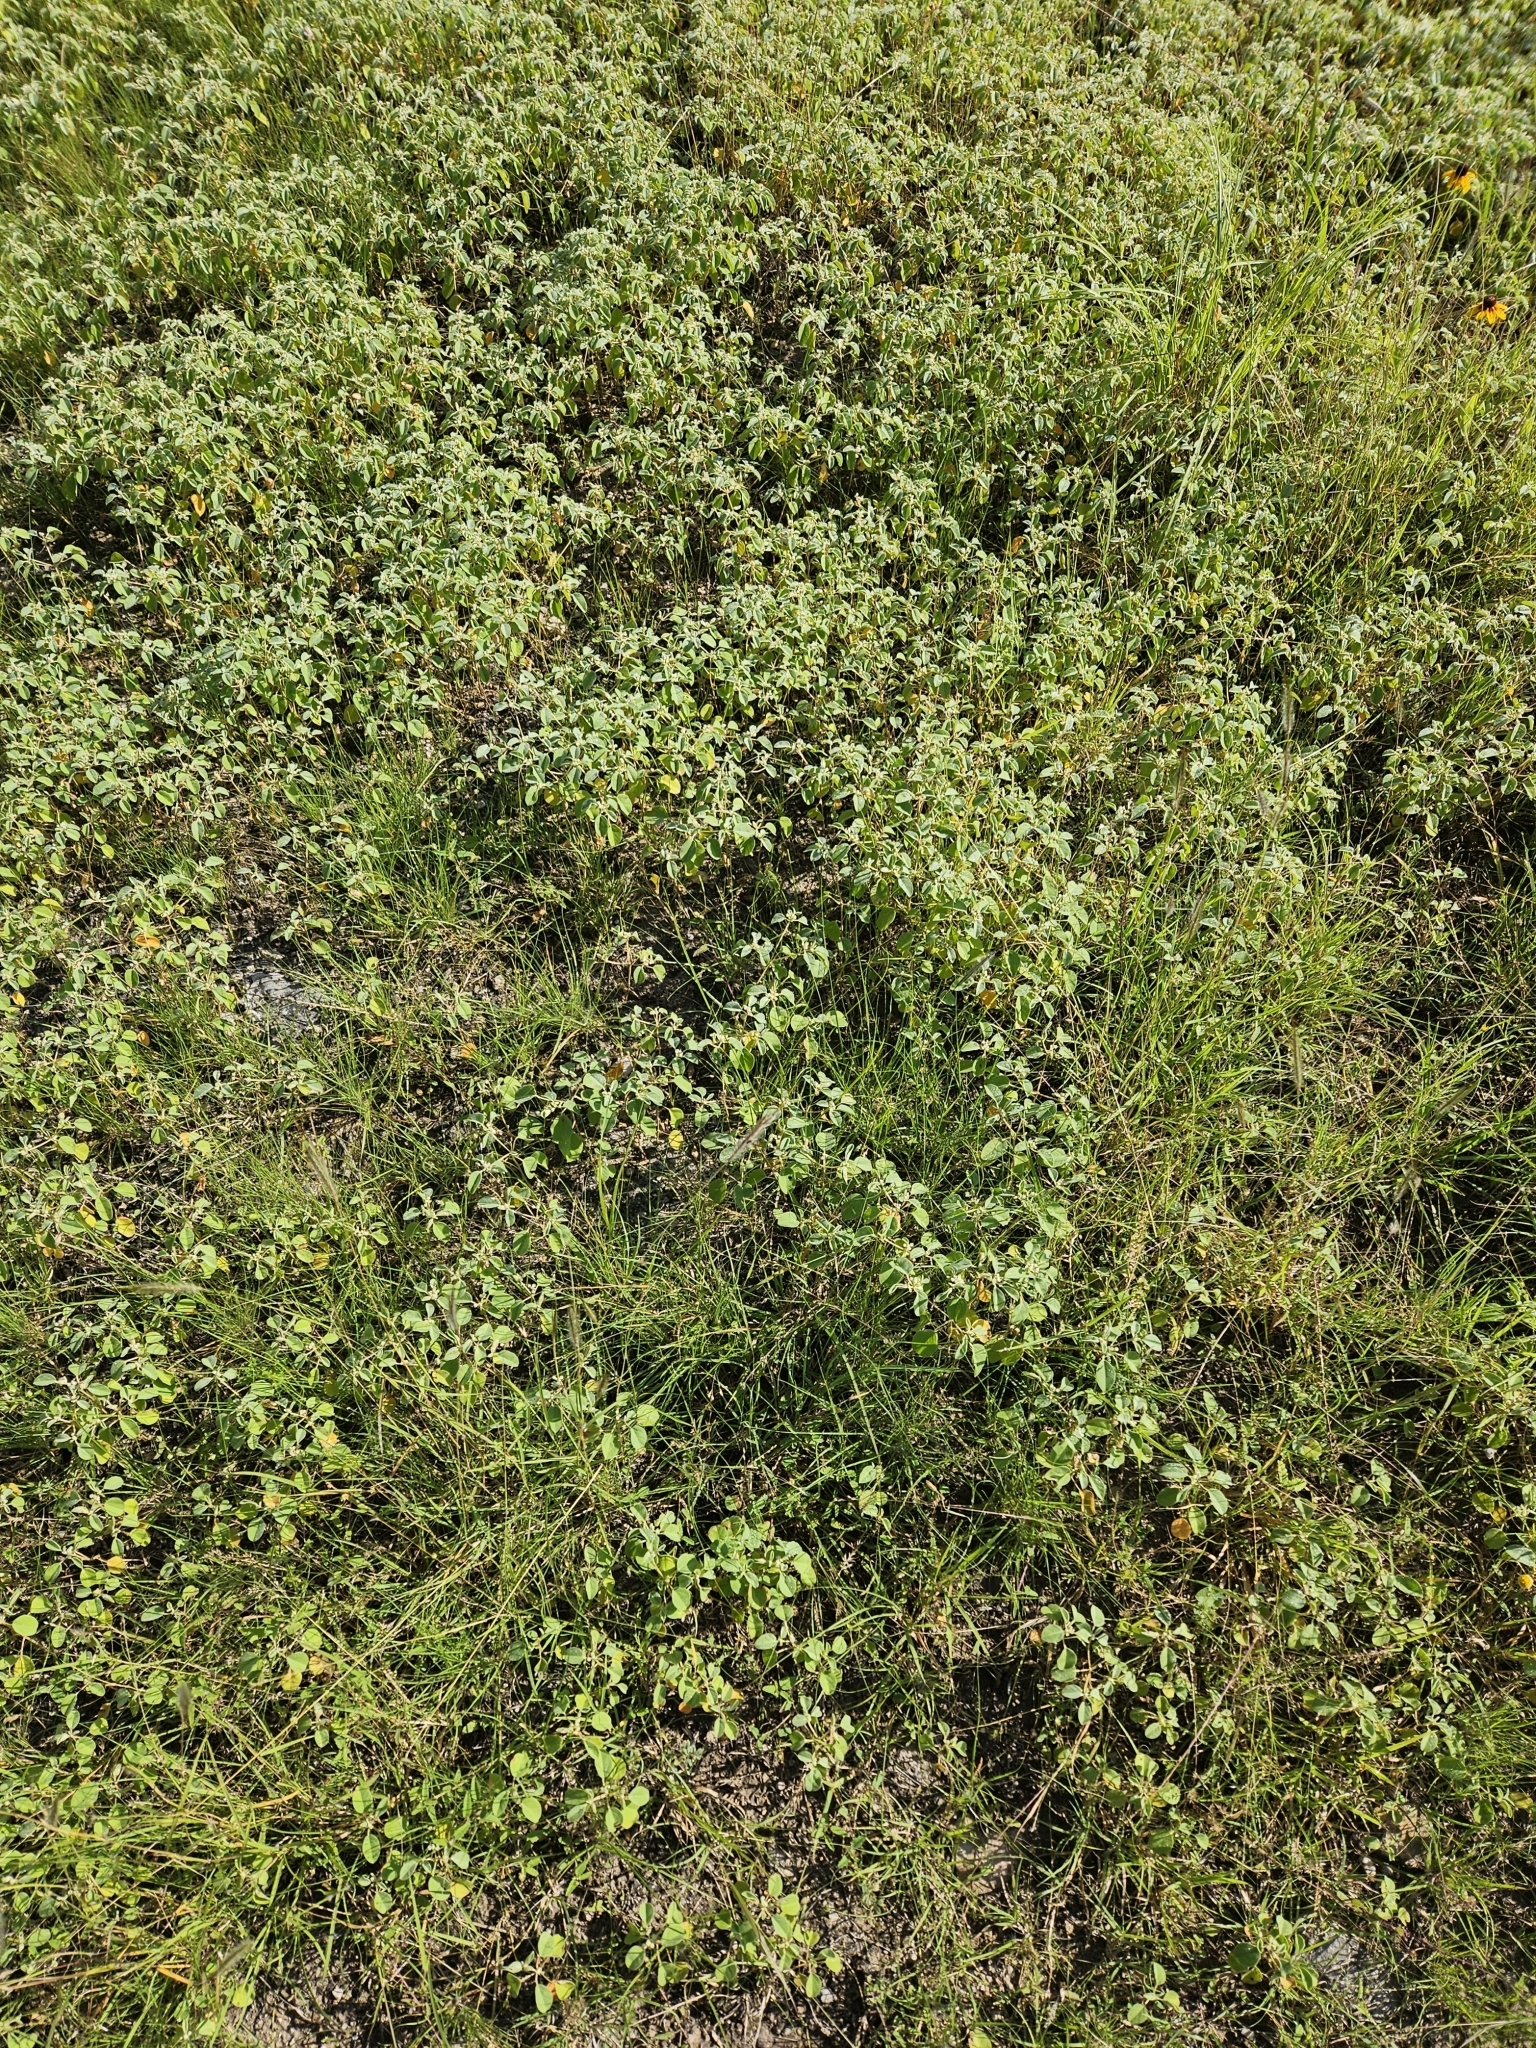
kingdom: Plantae
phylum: Tracheophyta
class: Magnoliopsida
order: Malpighiales
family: Euphorbiaceae
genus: Croton
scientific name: Croton monanthogynus
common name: One-seed croton
